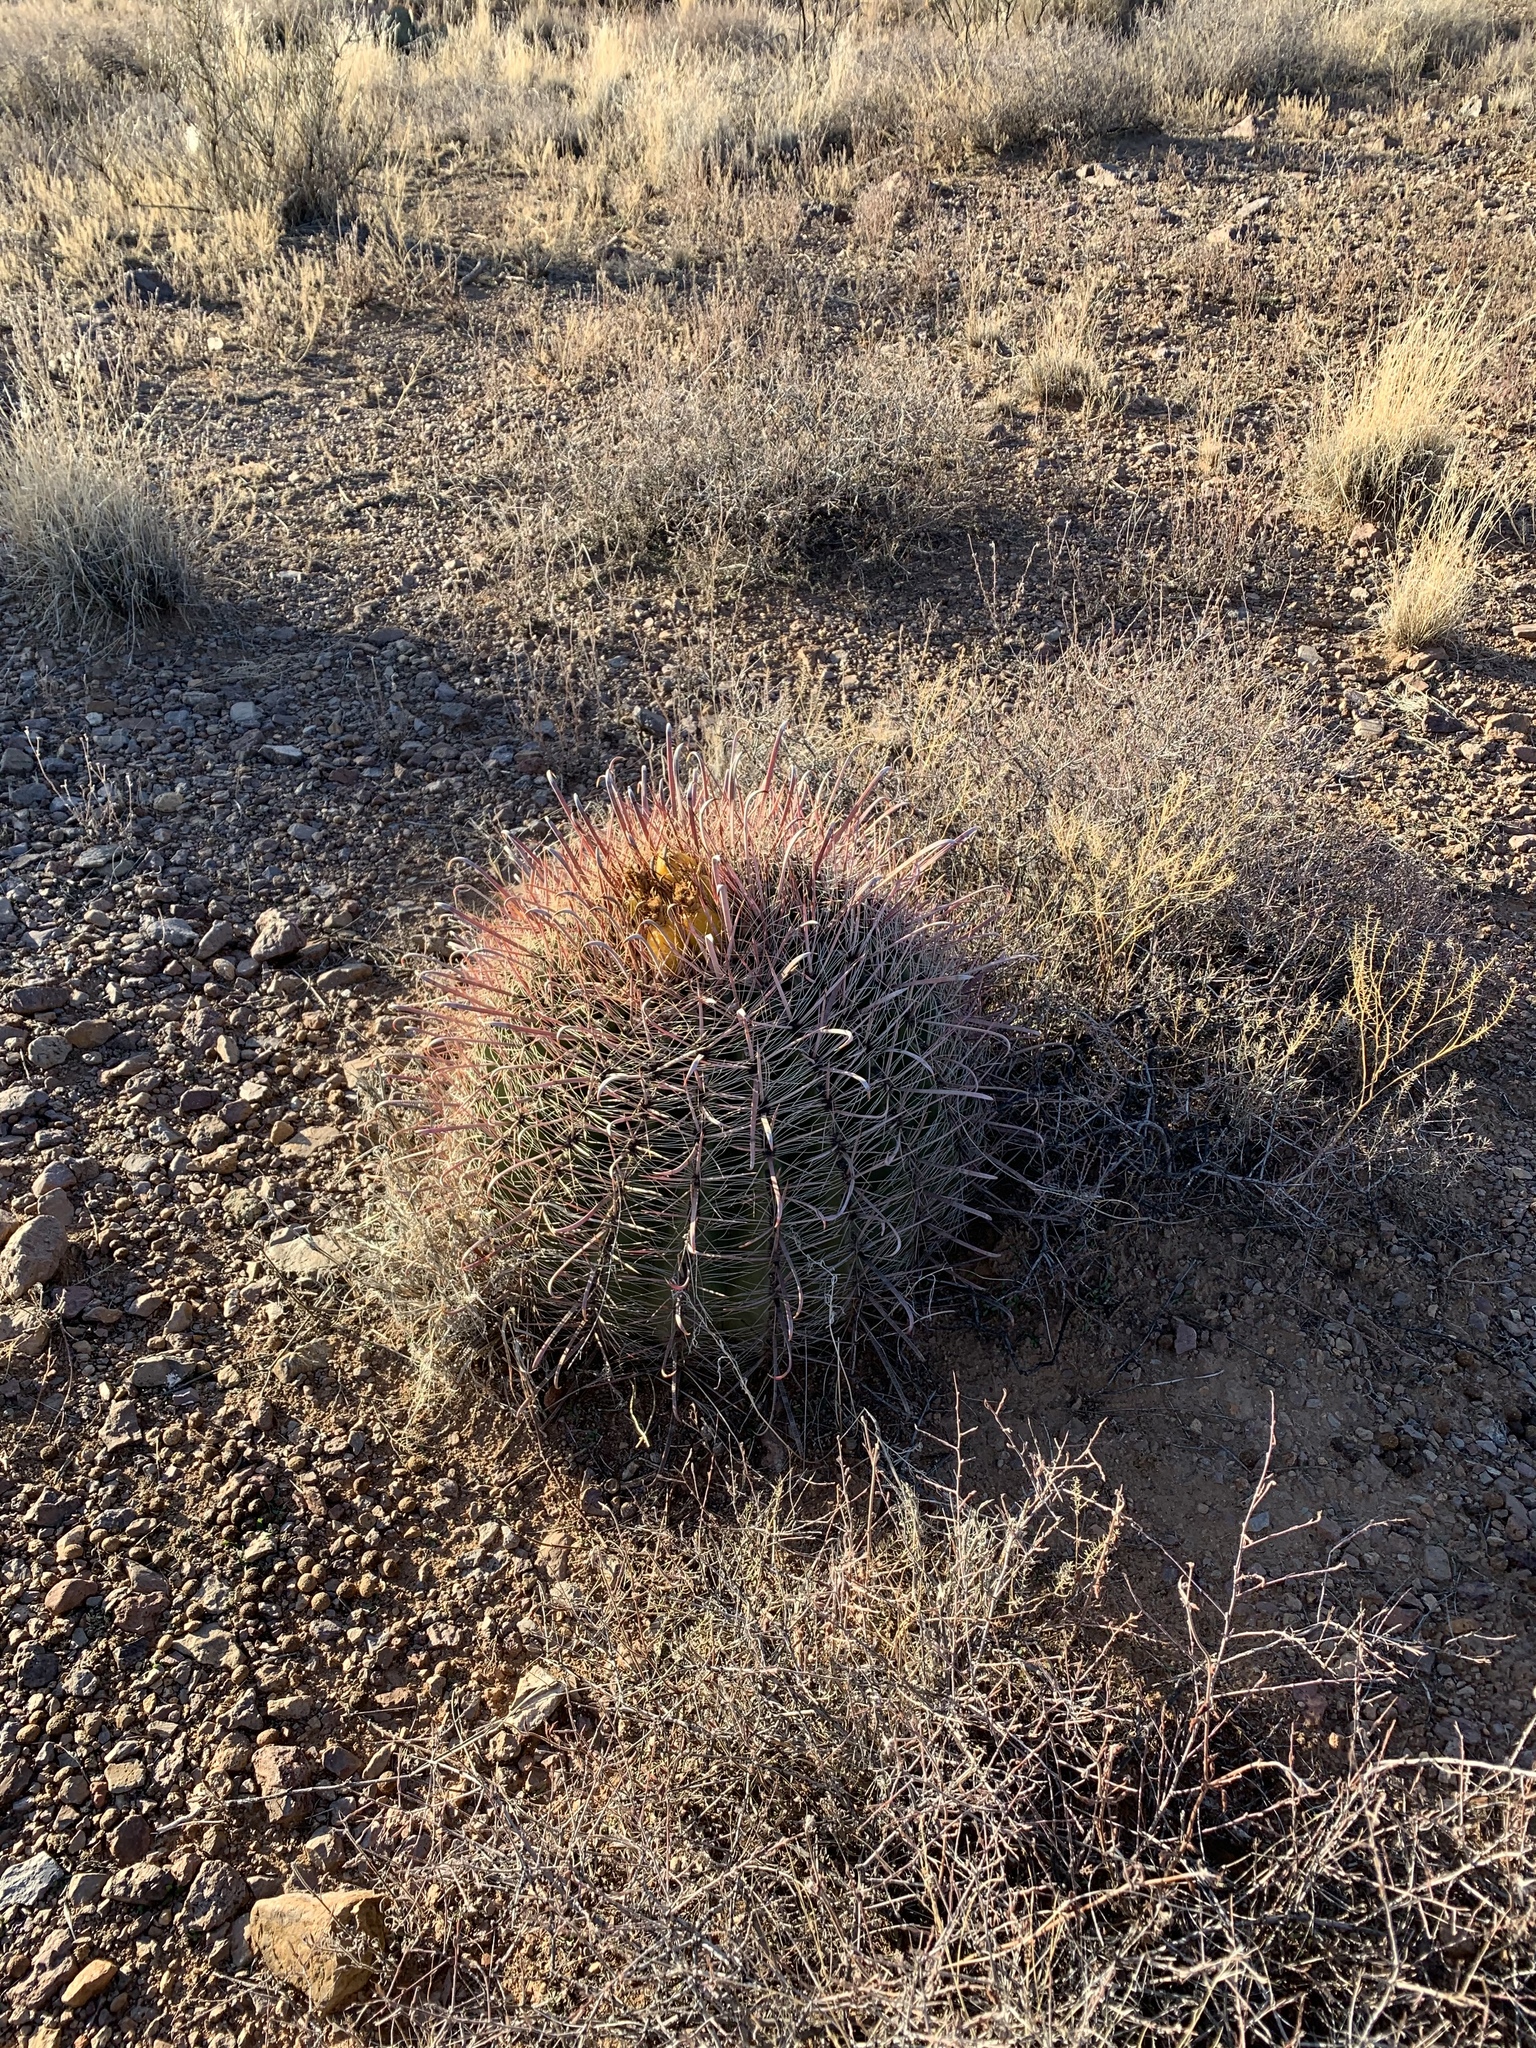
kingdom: Plantae
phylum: Tracheophyta
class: Magnoliopsida
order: Caryophyllales
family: Cactaceae
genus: Ferocactus
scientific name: Ferocactus wislizeni
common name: Candy barrel cactus
